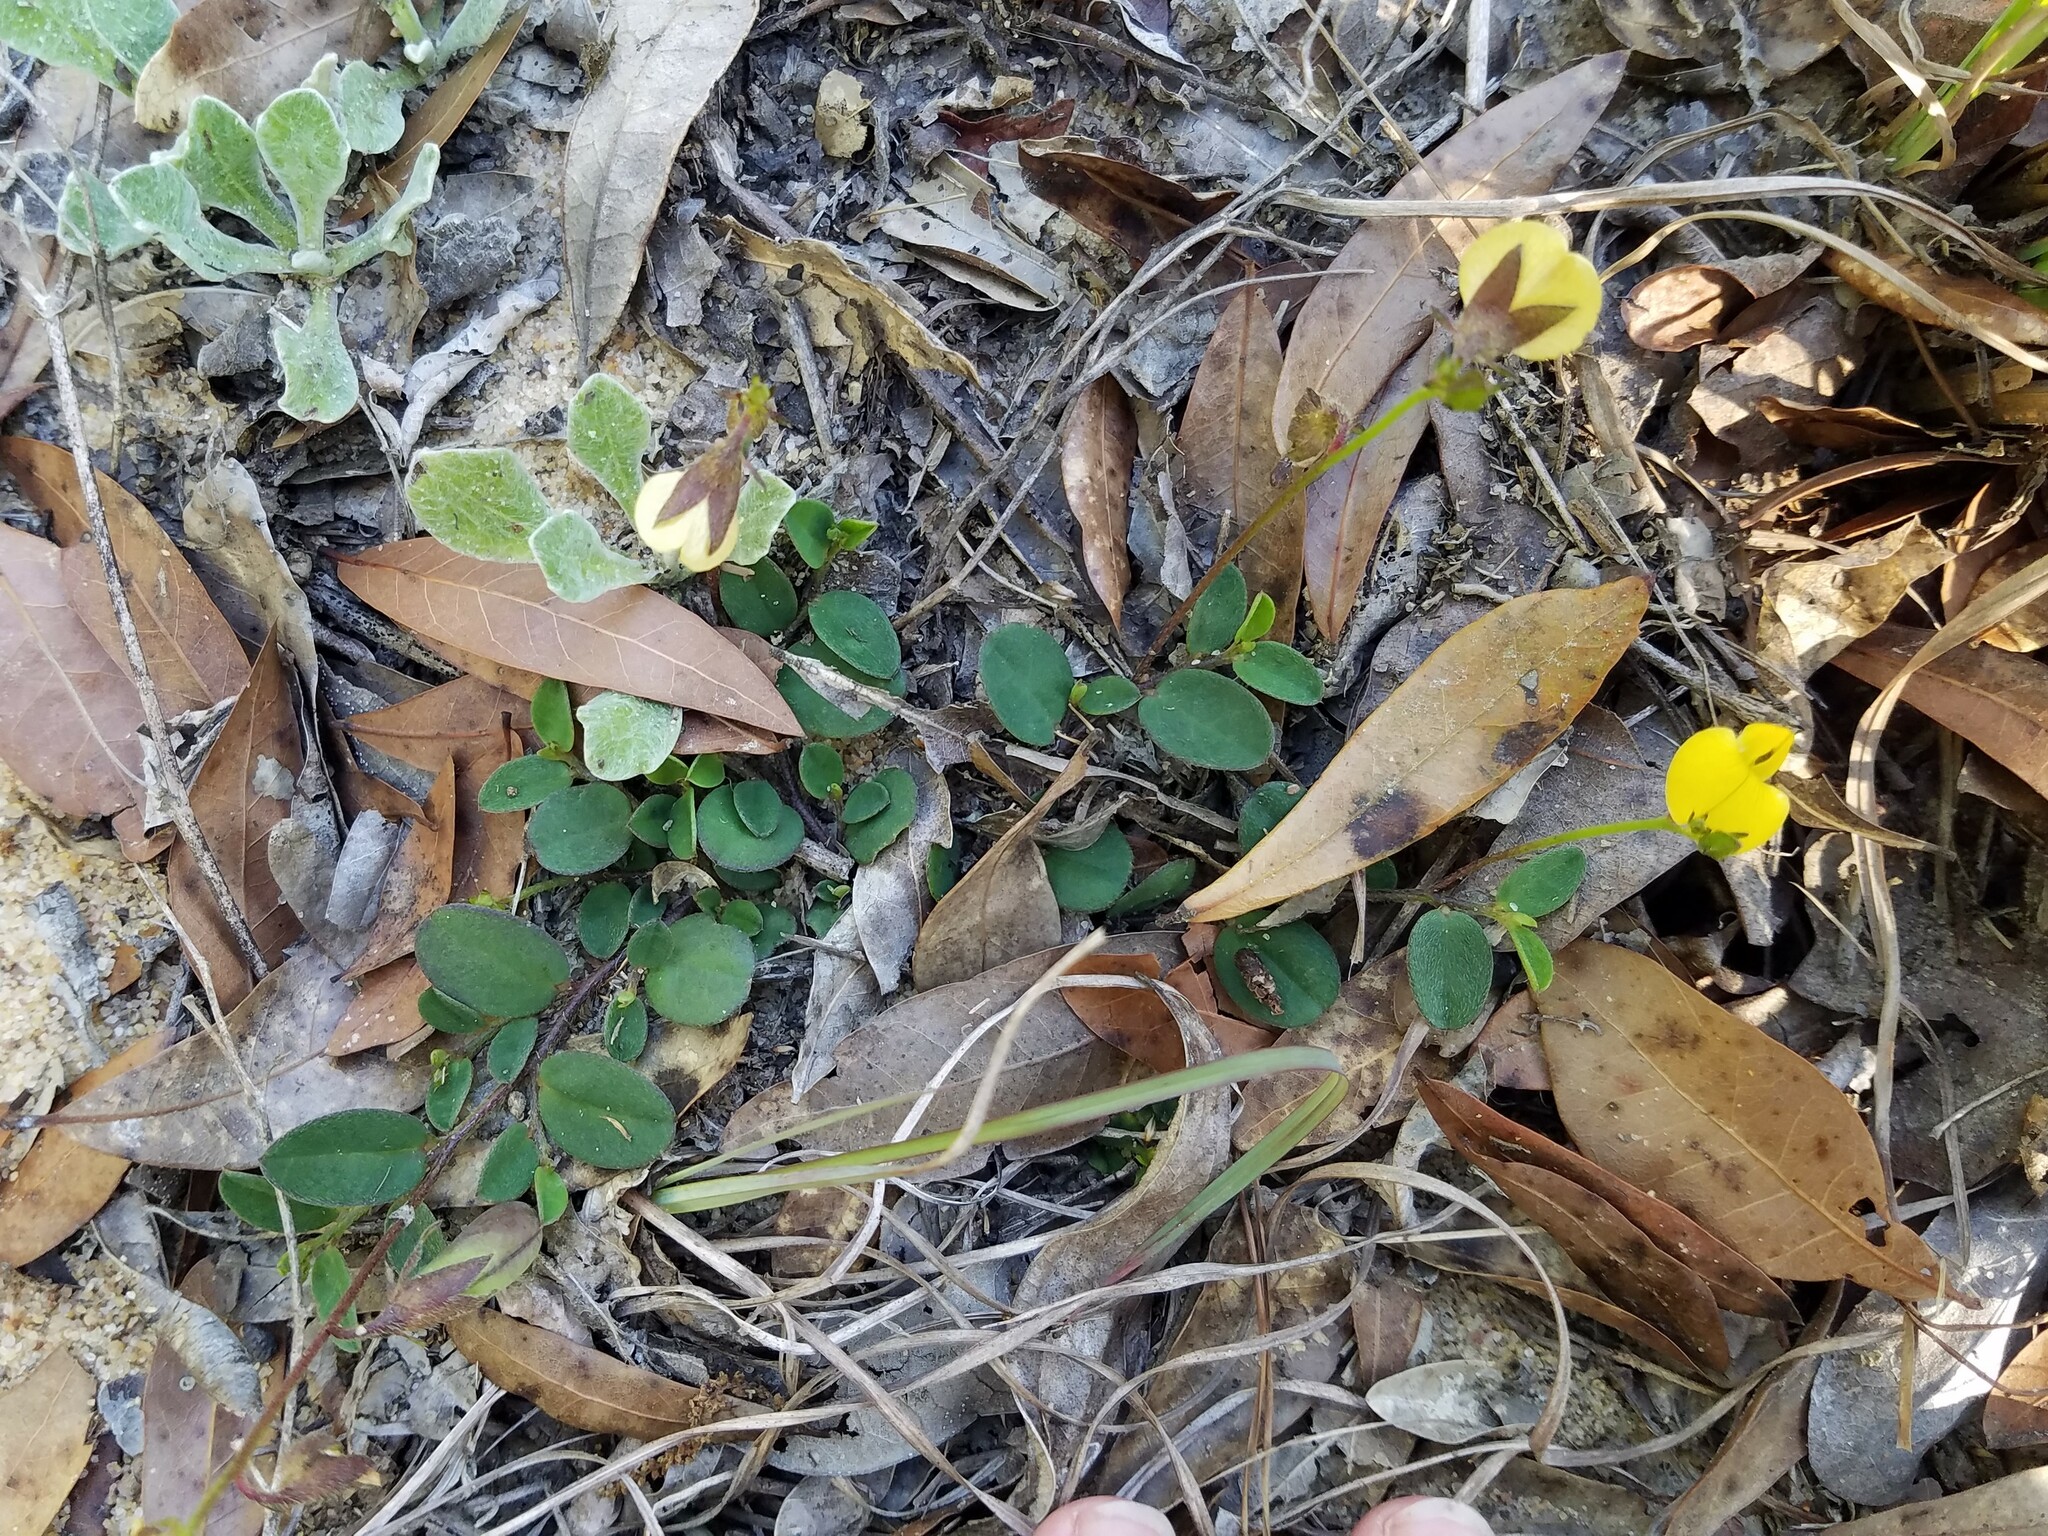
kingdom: Plantae
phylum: Tracheophyta
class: Magnoliopsida
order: Fabales
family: Fabaceae
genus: Crotalaria
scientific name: Crotalaria rotundifolia
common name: Prostrate rattlebox
